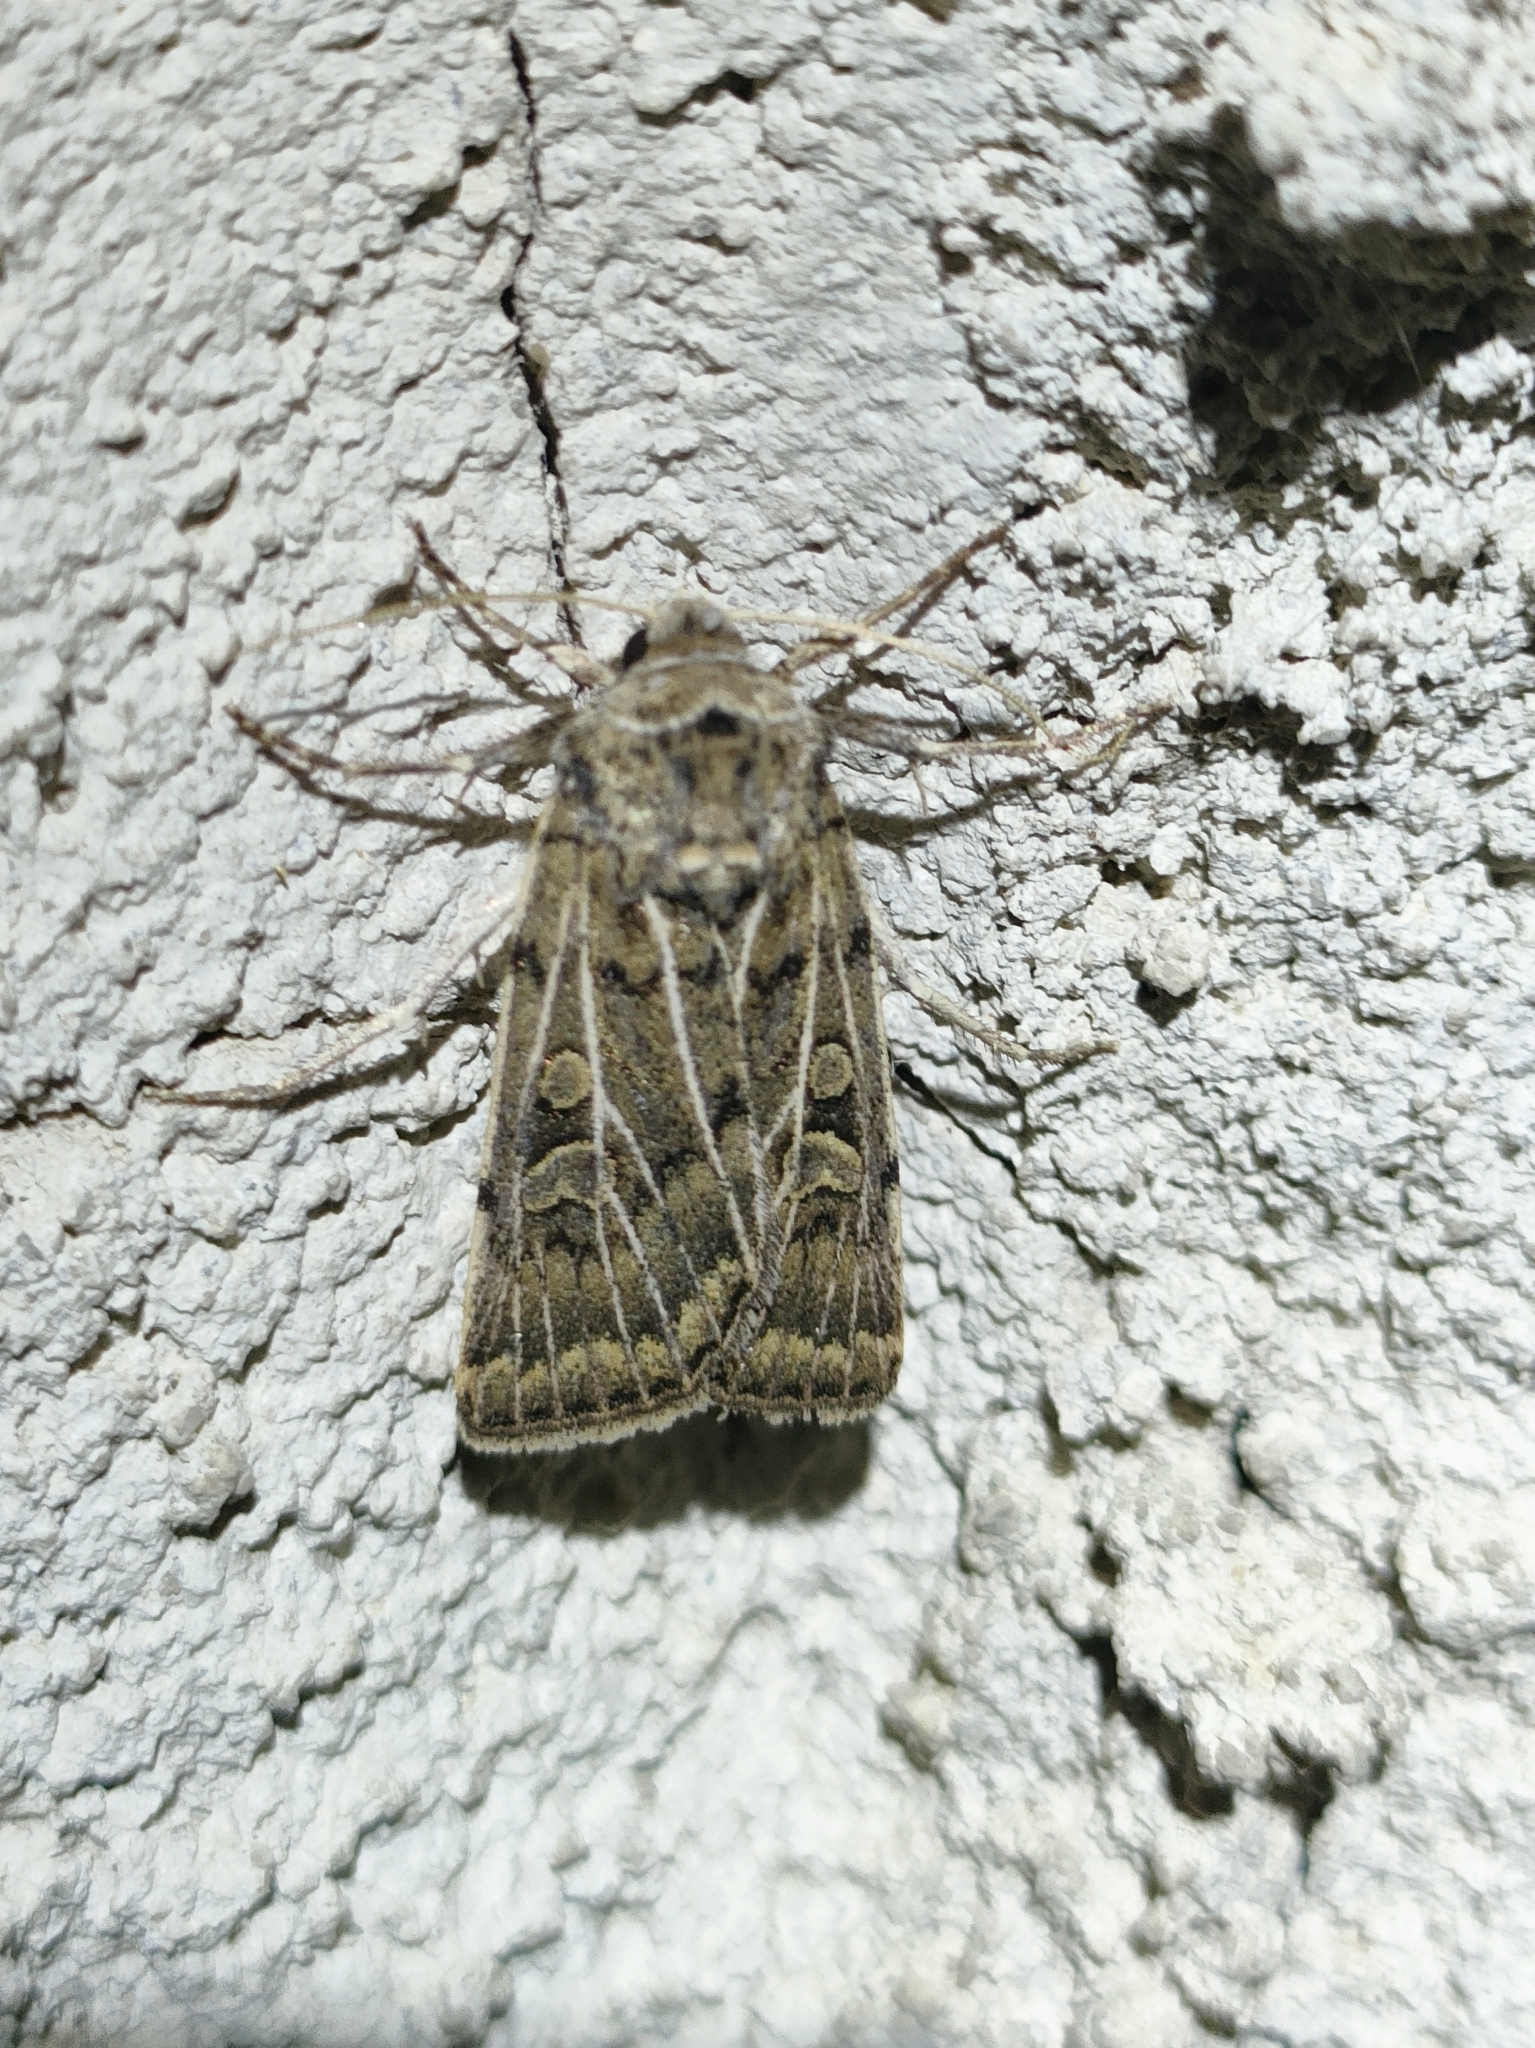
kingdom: Animalia
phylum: Arthropoda
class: Insecta
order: Lepidoptera
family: Noctuidae
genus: Xestia
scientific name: Xestia trifida
